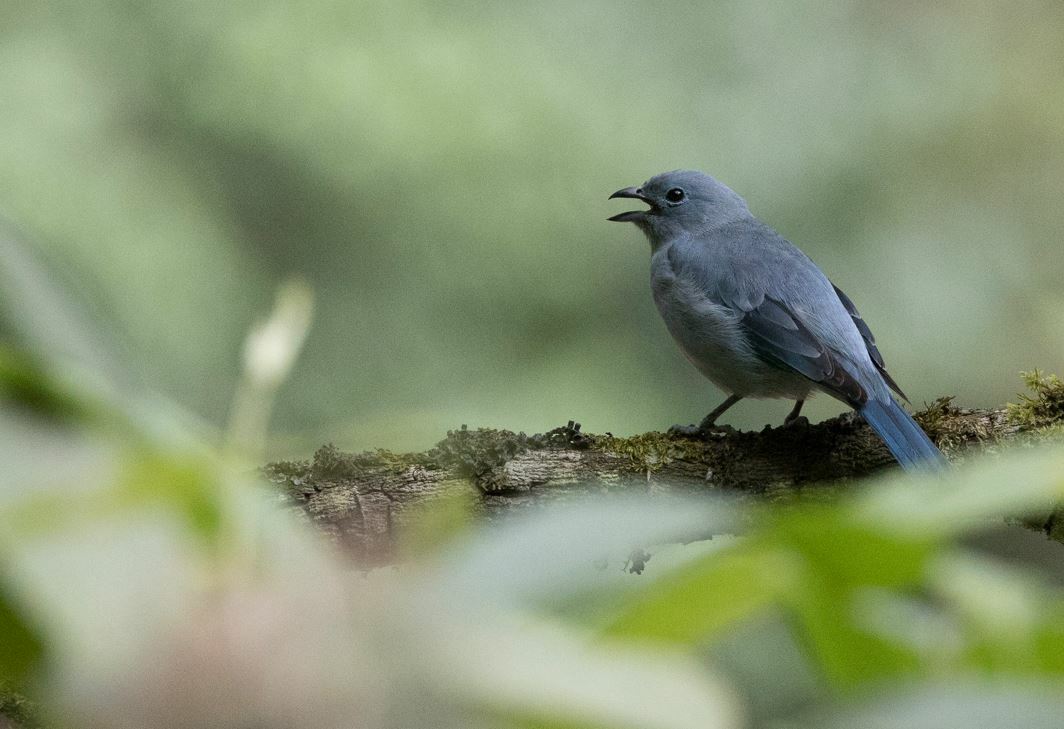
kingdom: Animalia
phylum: Chordata
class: Aves
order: Passeriformes
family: Thraupidae
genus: Thraupis
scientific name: Thraupis sayaca
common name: Sayaca tanager
